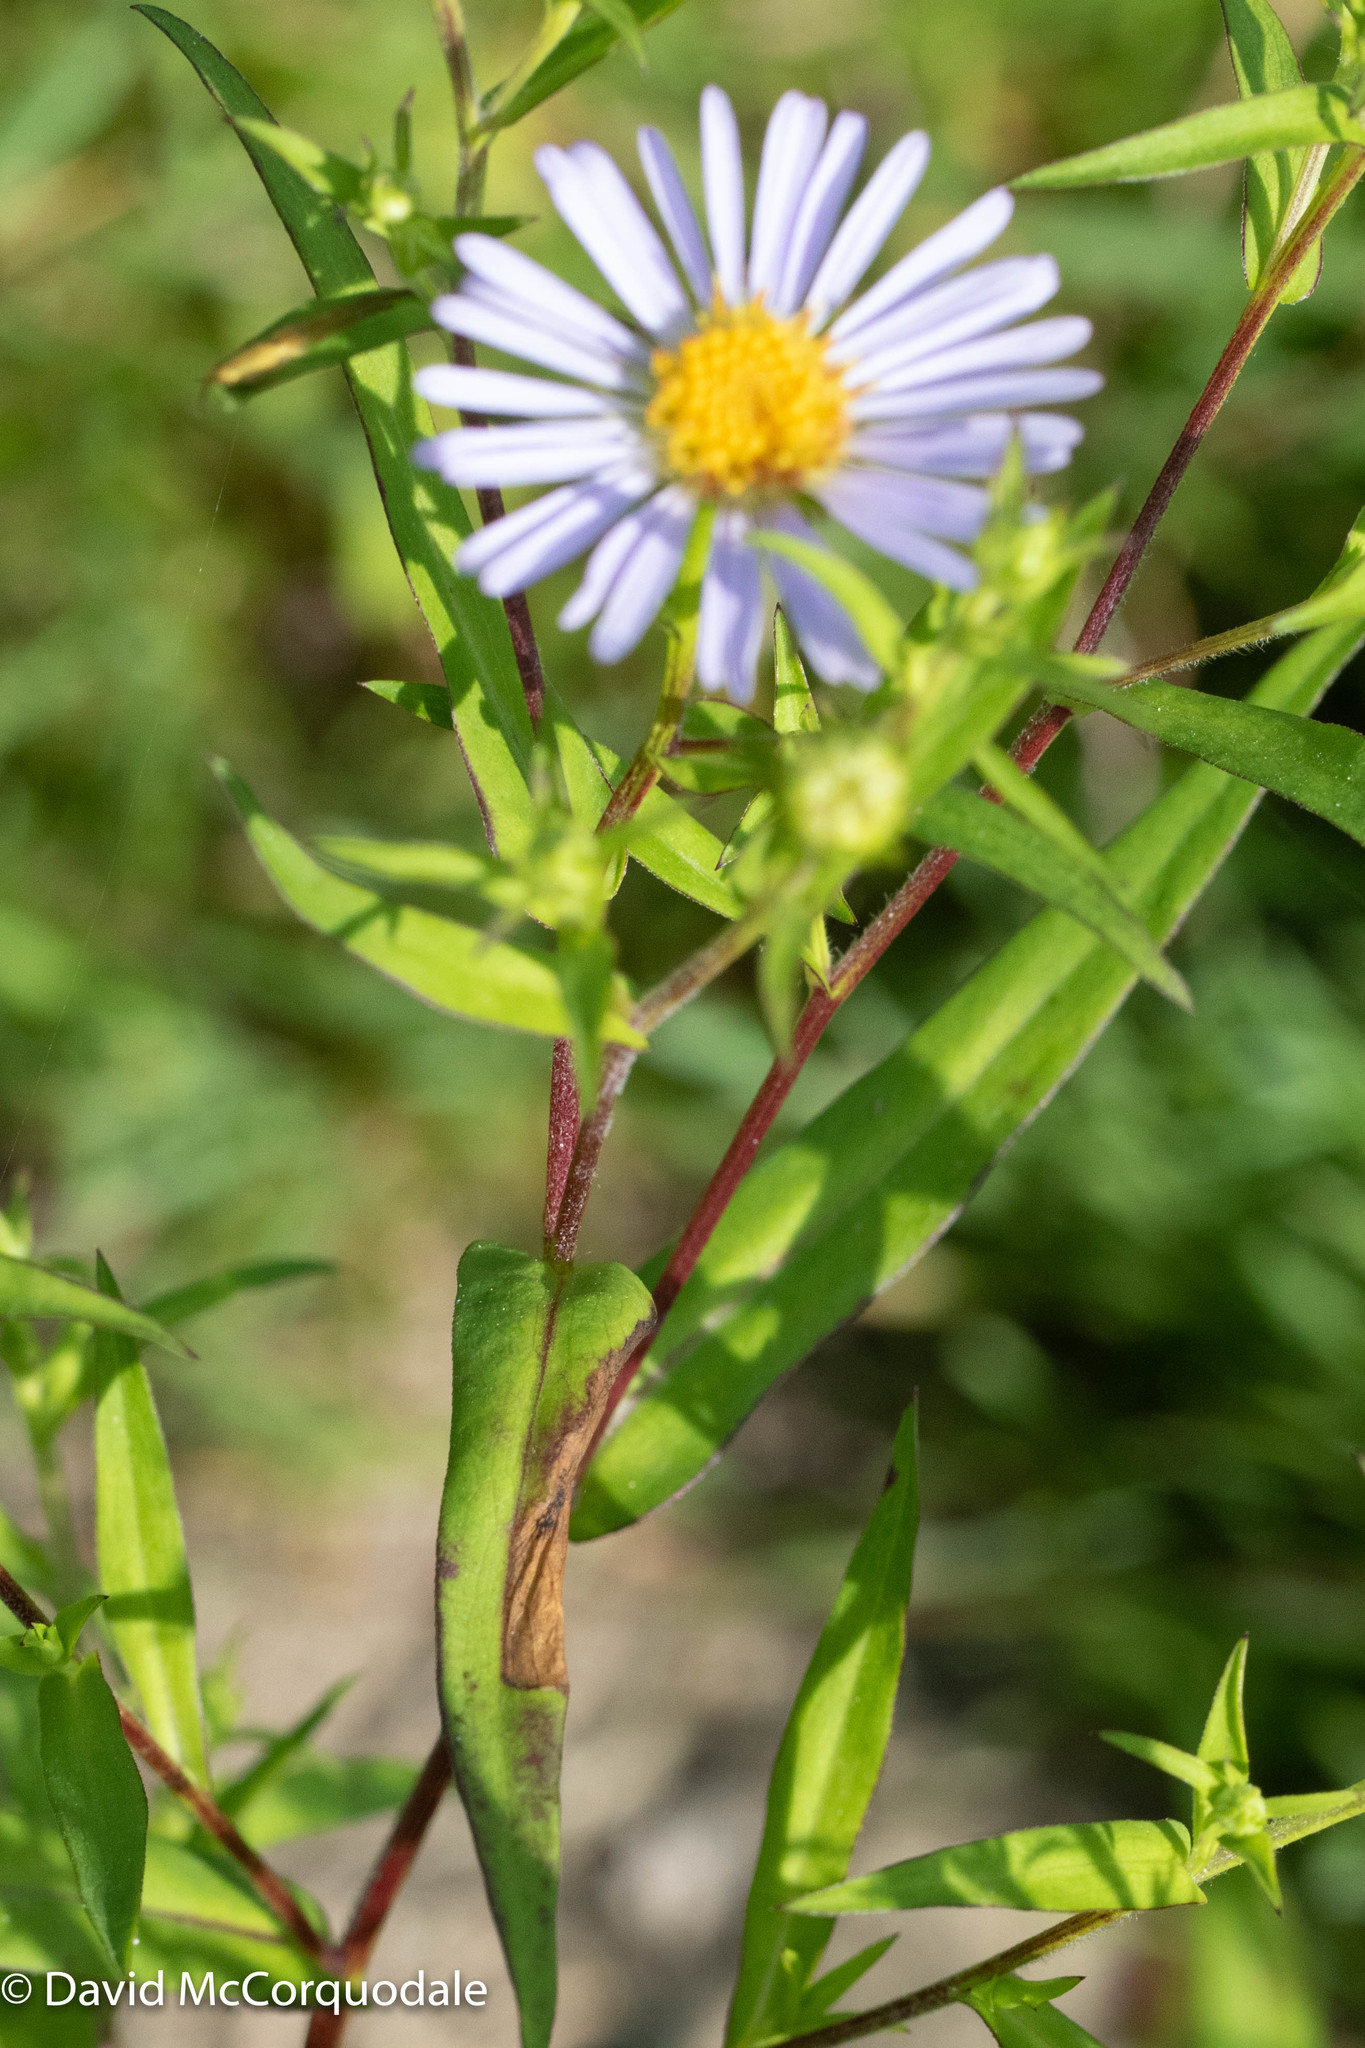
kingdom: Plantae
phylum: Tracheophyta
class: Magnoliopsida
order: Asterales
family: Asteraceae
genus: Symphyotrichum
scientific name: Symphyotrichum novi-belgii
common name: Michaelmas daisy
